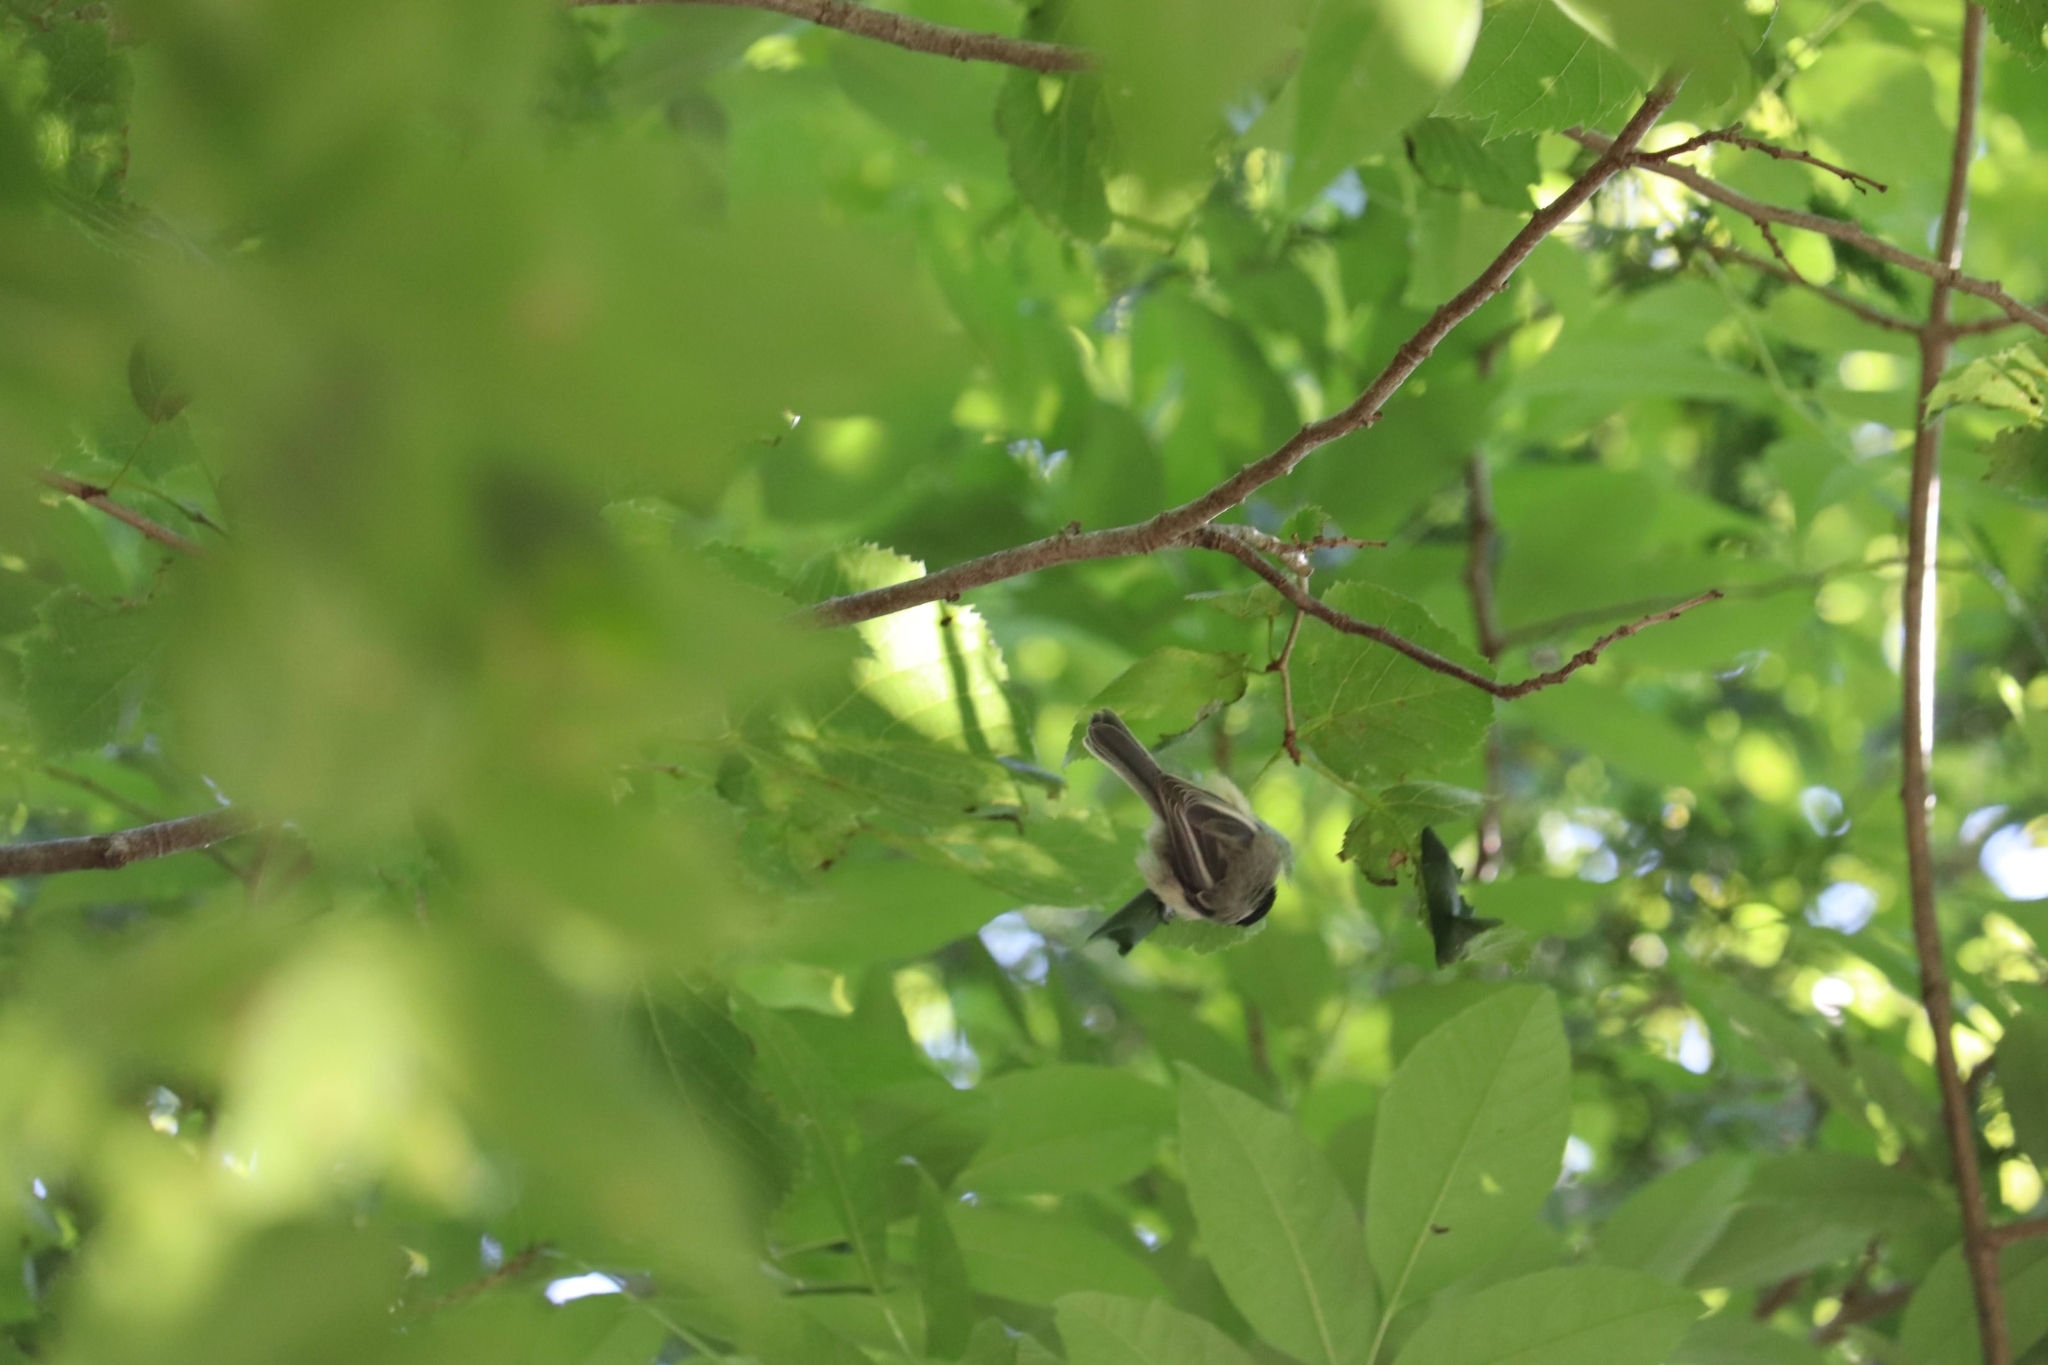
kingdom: Animalia
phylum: Chordata
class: Aves
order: Passeriformes
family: Paridae
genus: Poecile
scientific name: Poecile atricapillus
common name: Black-capped chickadee
